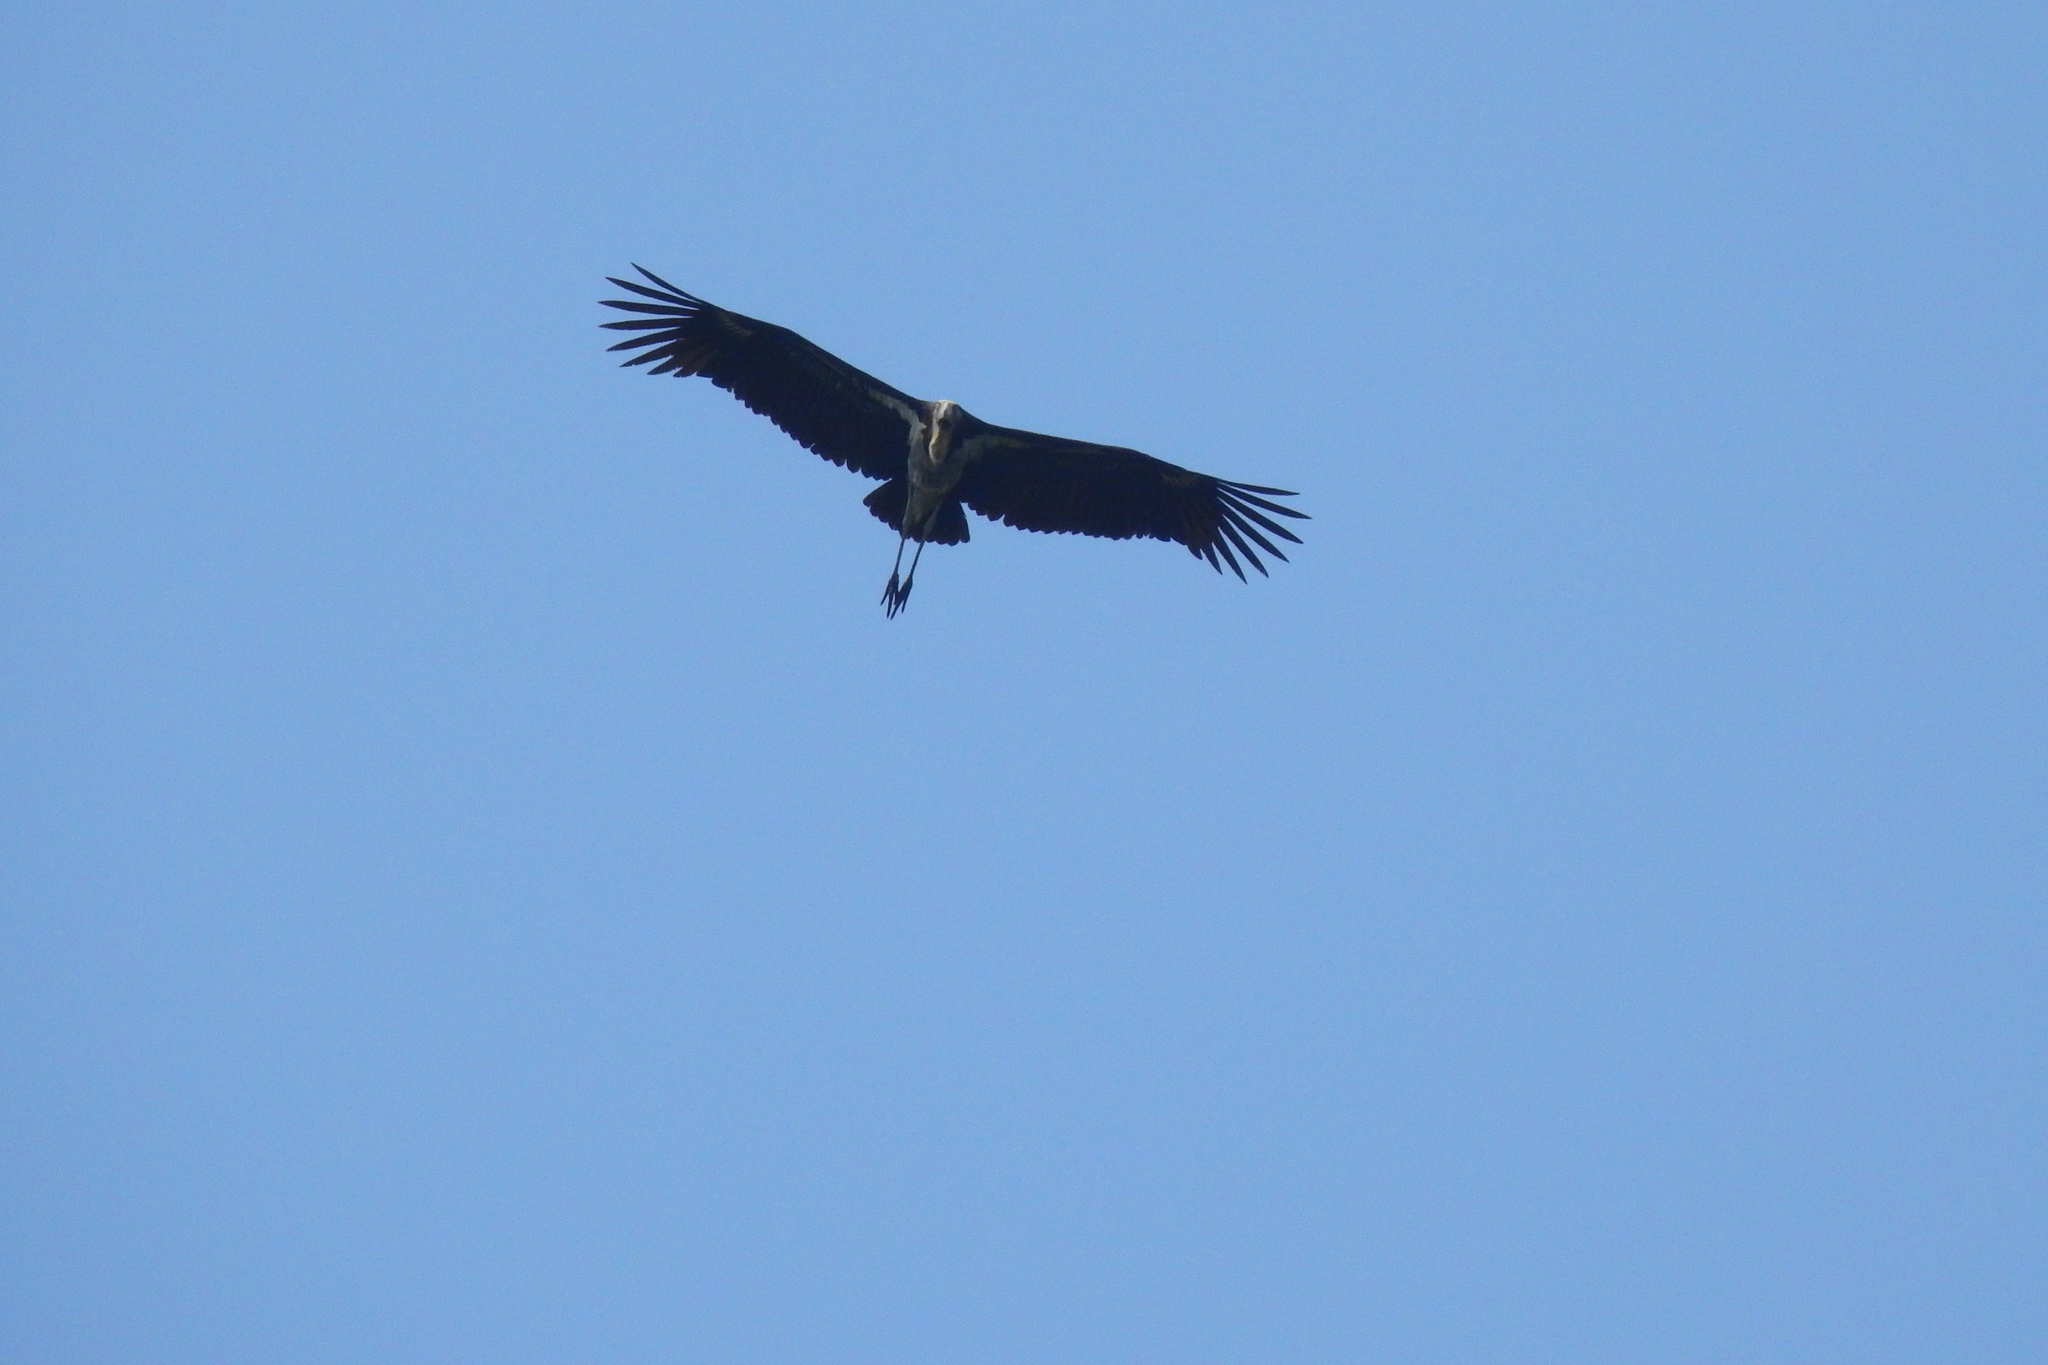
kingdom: Animalia
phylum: Chordata
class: Aves
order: Ciconiiformes
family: Ciconiidae
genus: Leptoptilos
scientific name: Leptoptilos javanicus
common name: Lesser adjutant
